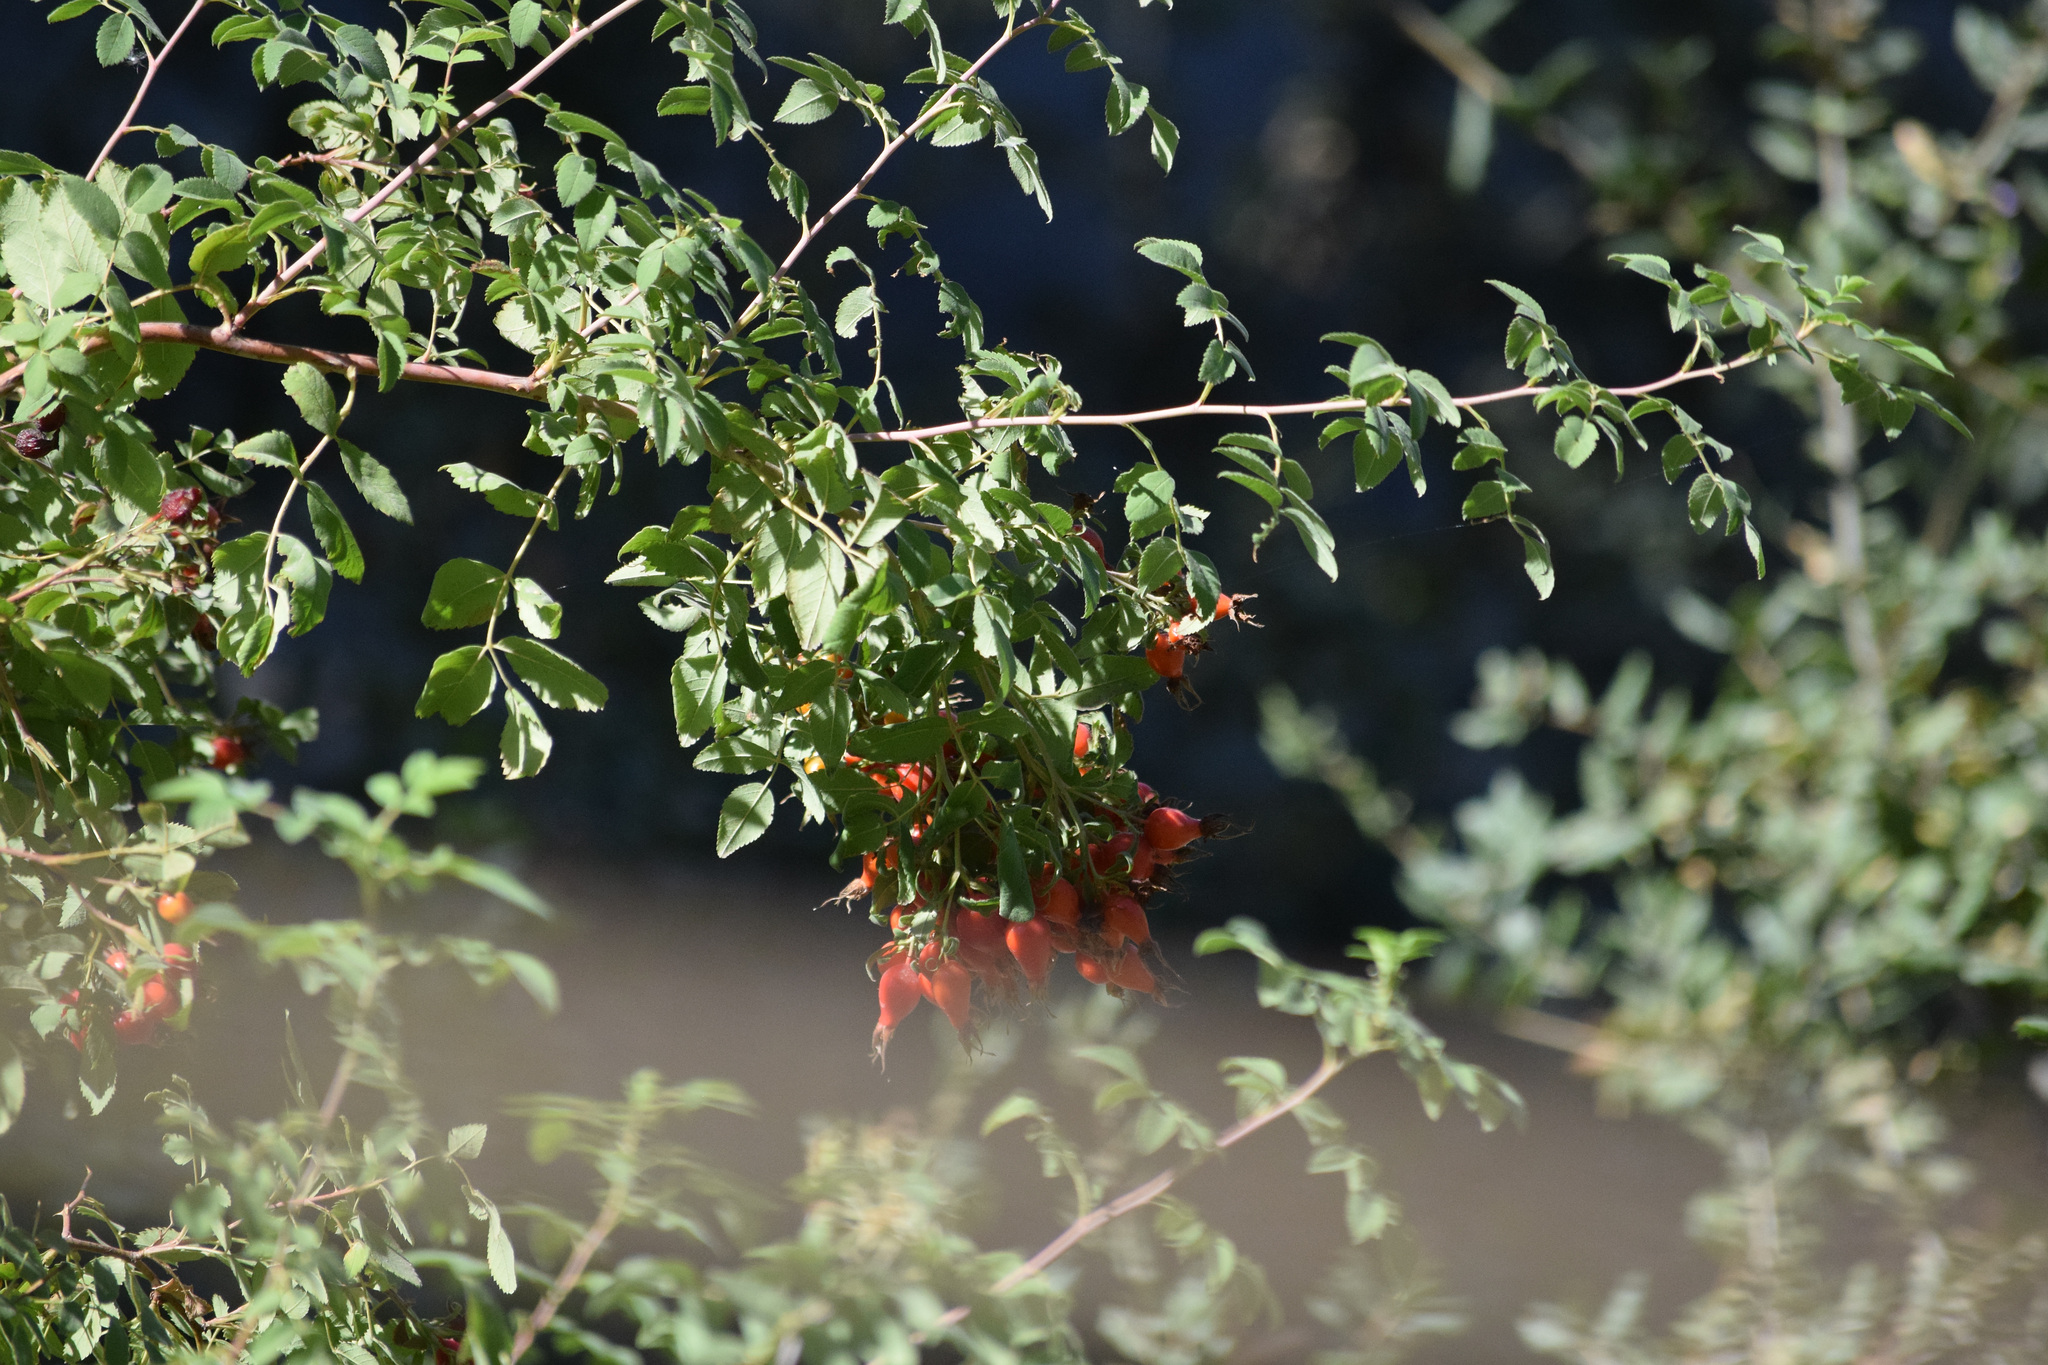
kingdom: Plantae
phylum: Tracheophyta
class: Magnoliopsida
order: Rosales
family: Rosaceae
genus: Rosa
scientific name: Rosa californica
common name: California rose
